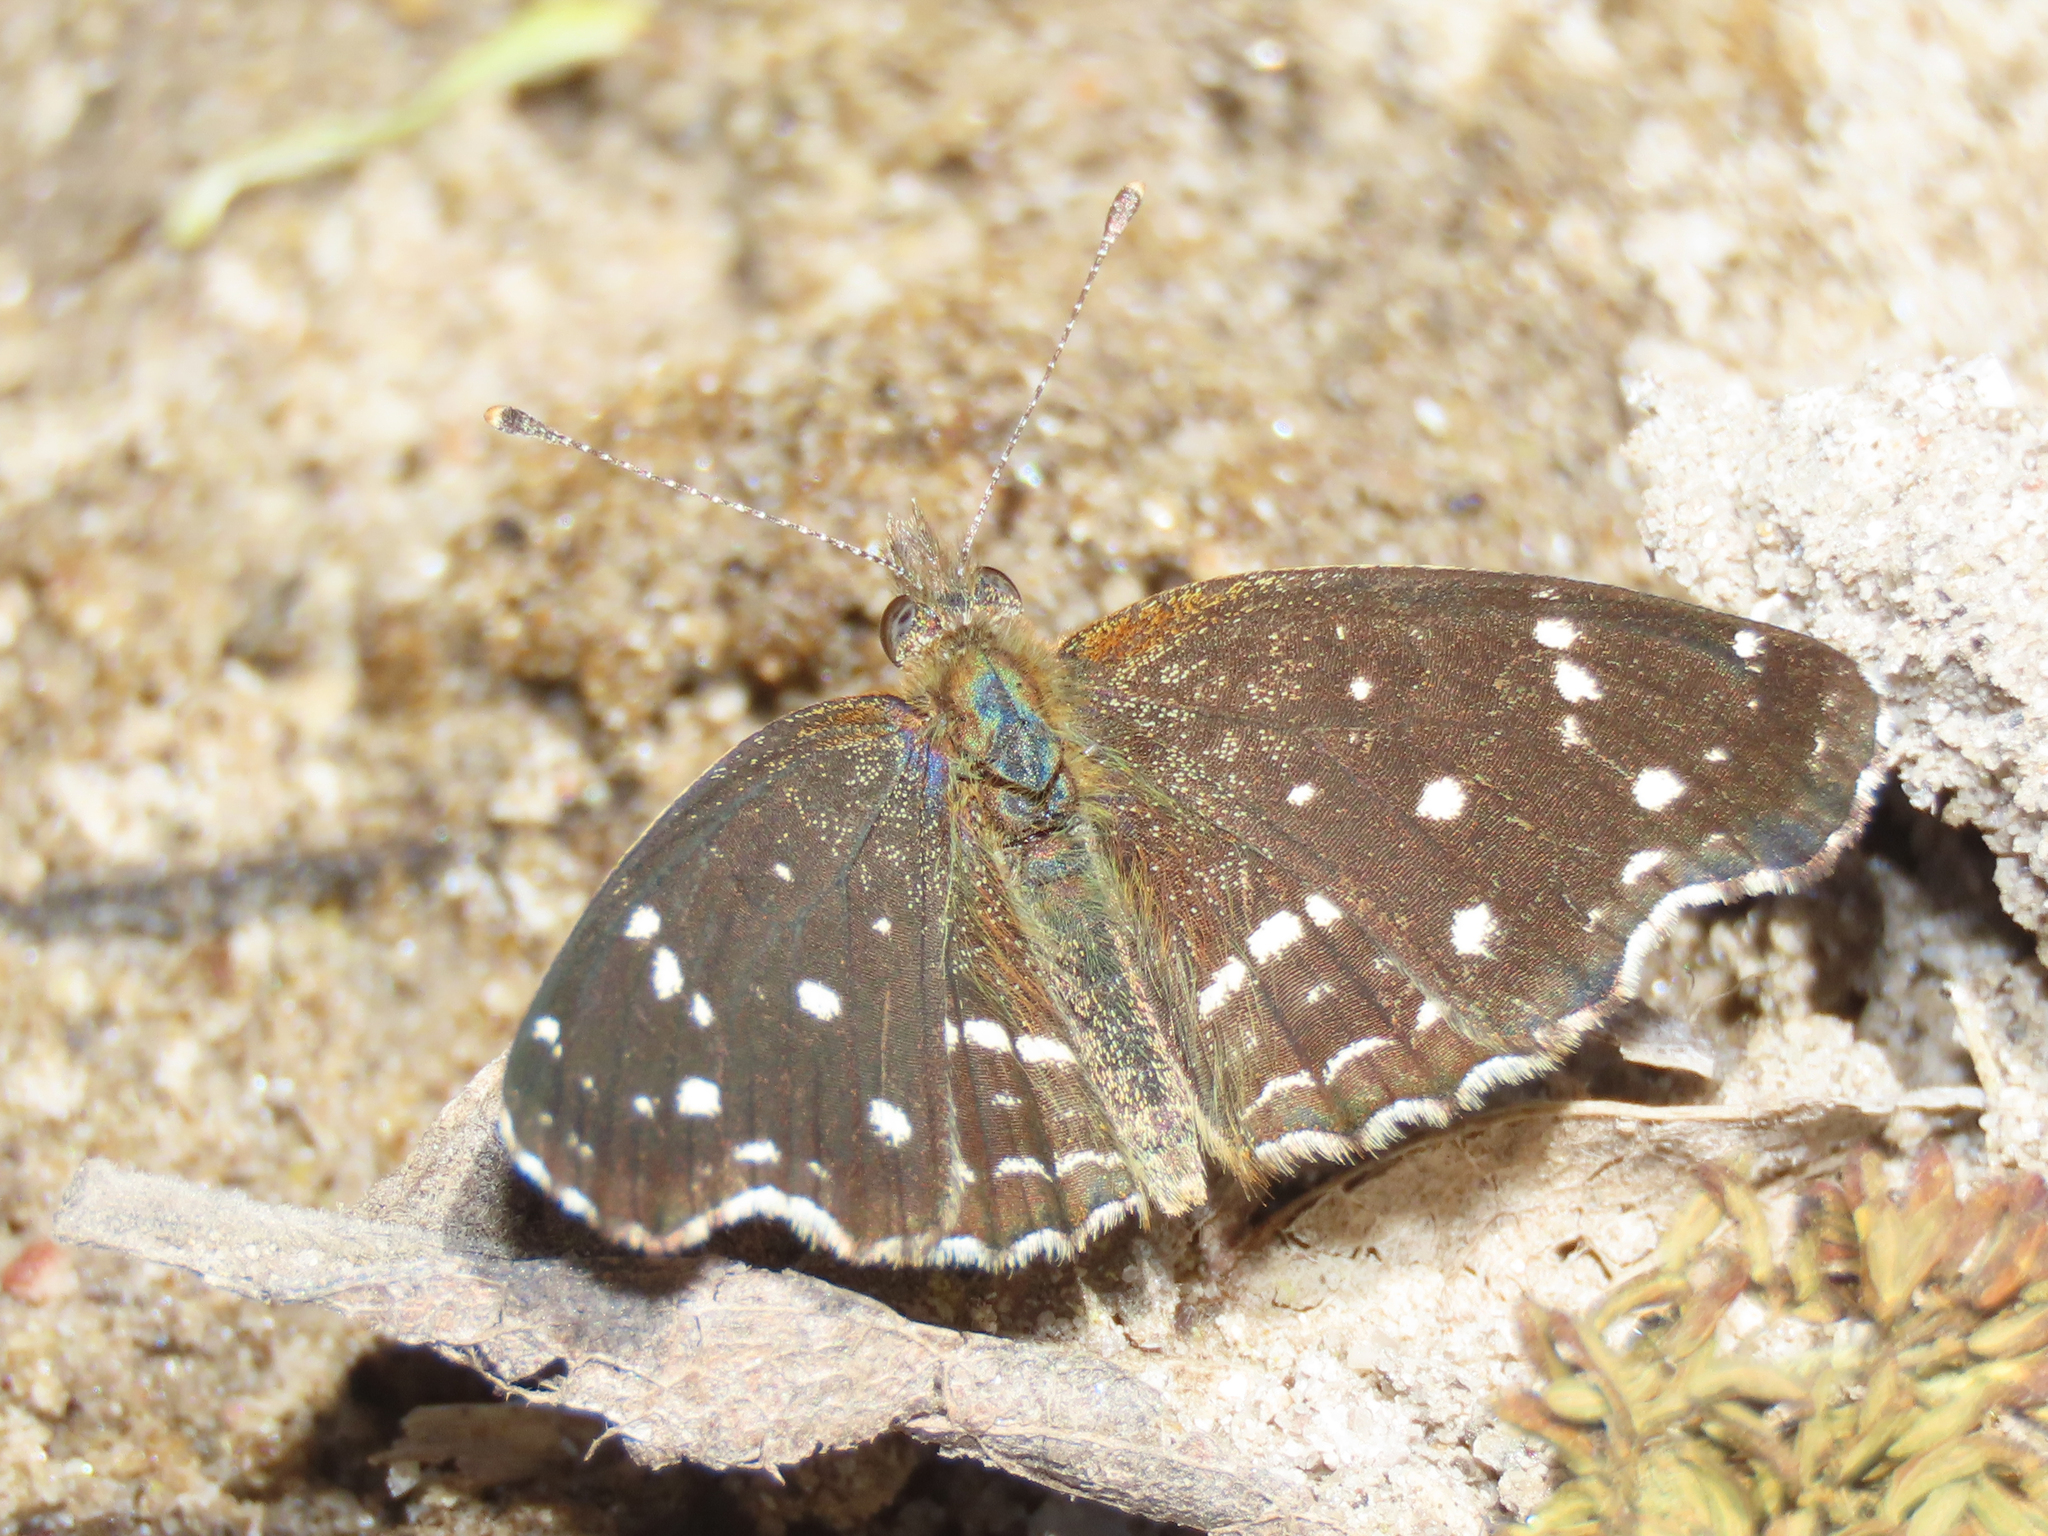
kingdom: Animalia
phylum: Arthropoda
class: Insecta
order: Lepidoptera
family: Nymphalidae
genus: Anthanassa
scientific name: Anthanassa texana
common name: Texan crescent
